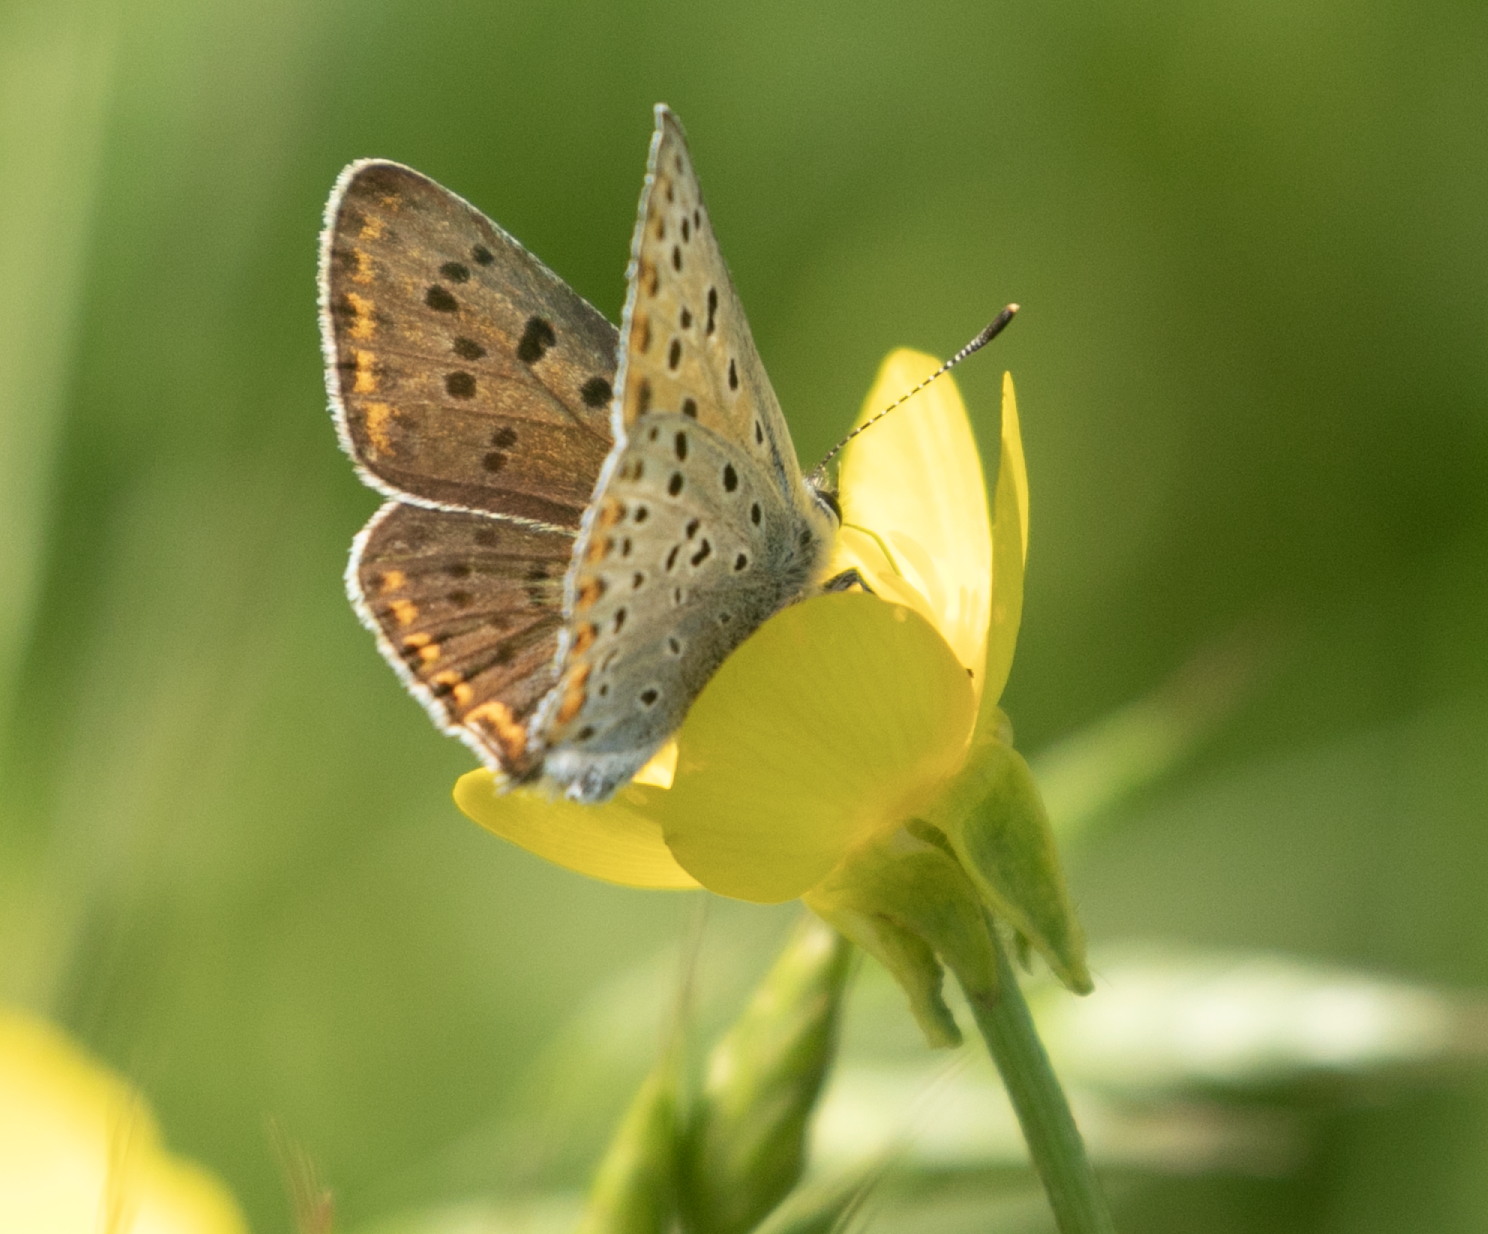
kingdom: Animalia
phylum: Arthropoda
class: Insecta
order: Lepidoptera
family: Lycaenidae
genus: Loweia
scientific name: Loweia tityrus
